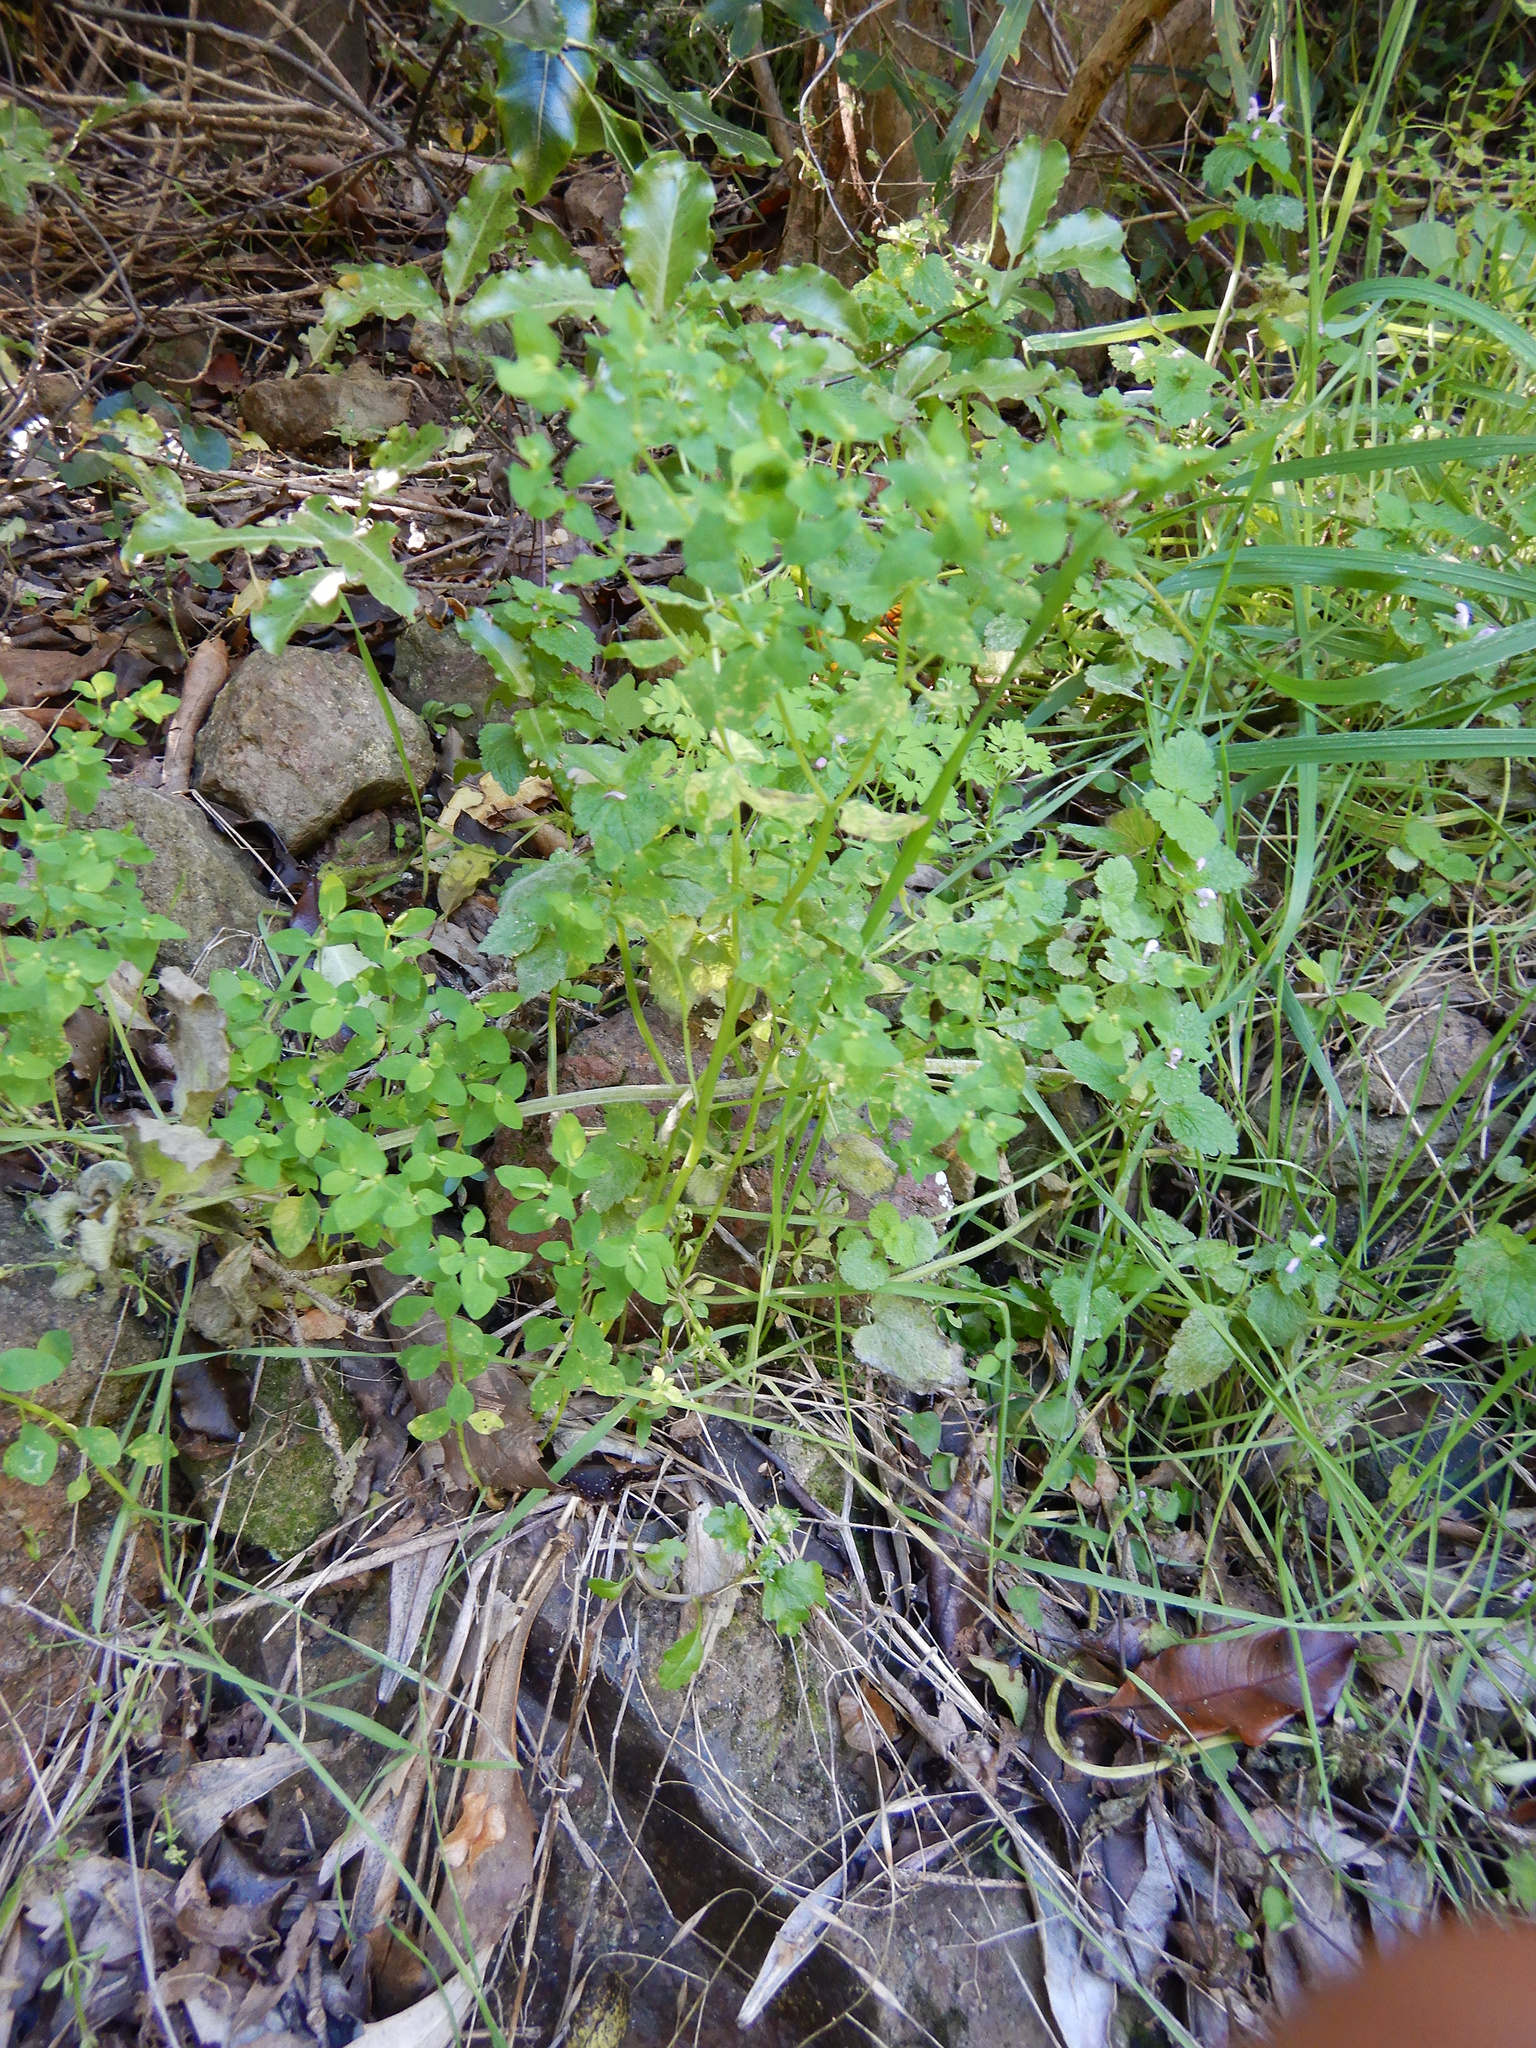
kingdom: Plantae
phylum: Tracheophyta
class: Magnoliopsida
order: Malpighiales
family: Euphorbiaceae
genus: Euphorbia
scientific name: Euphorbia peplus
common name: Petty spurge
